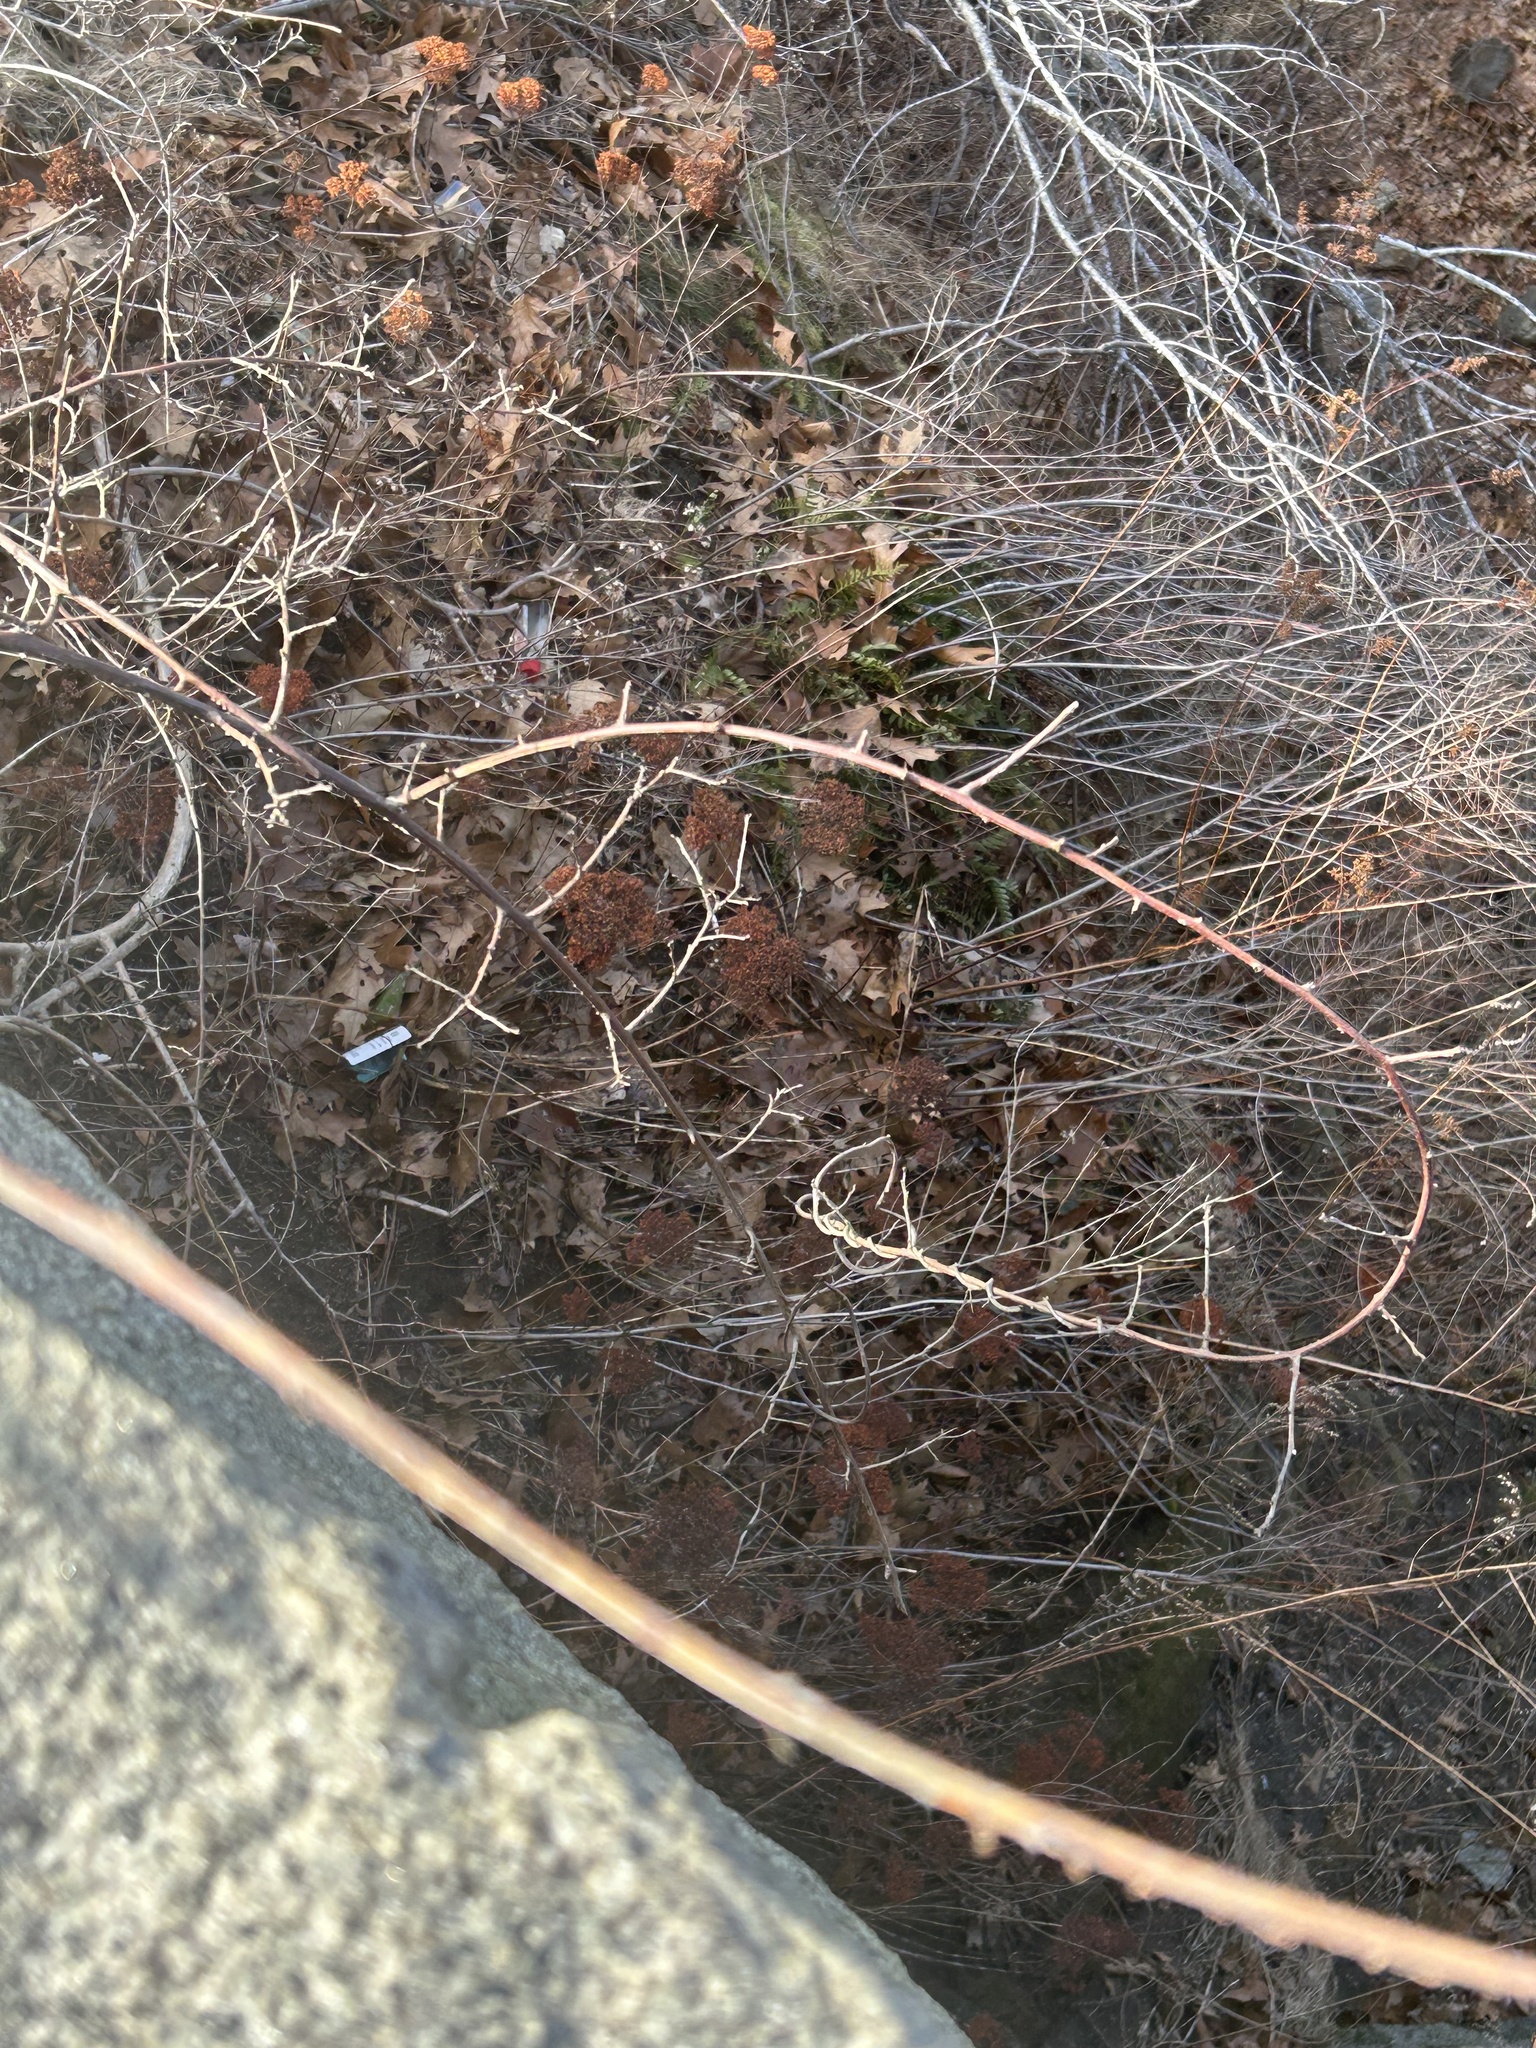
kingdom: Plantae
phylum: Tracheophyta
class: Magnoliopsida
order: Asterales
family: Asteraceae
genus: Achillea
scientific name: Achillea millefolium
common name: Yarrow
